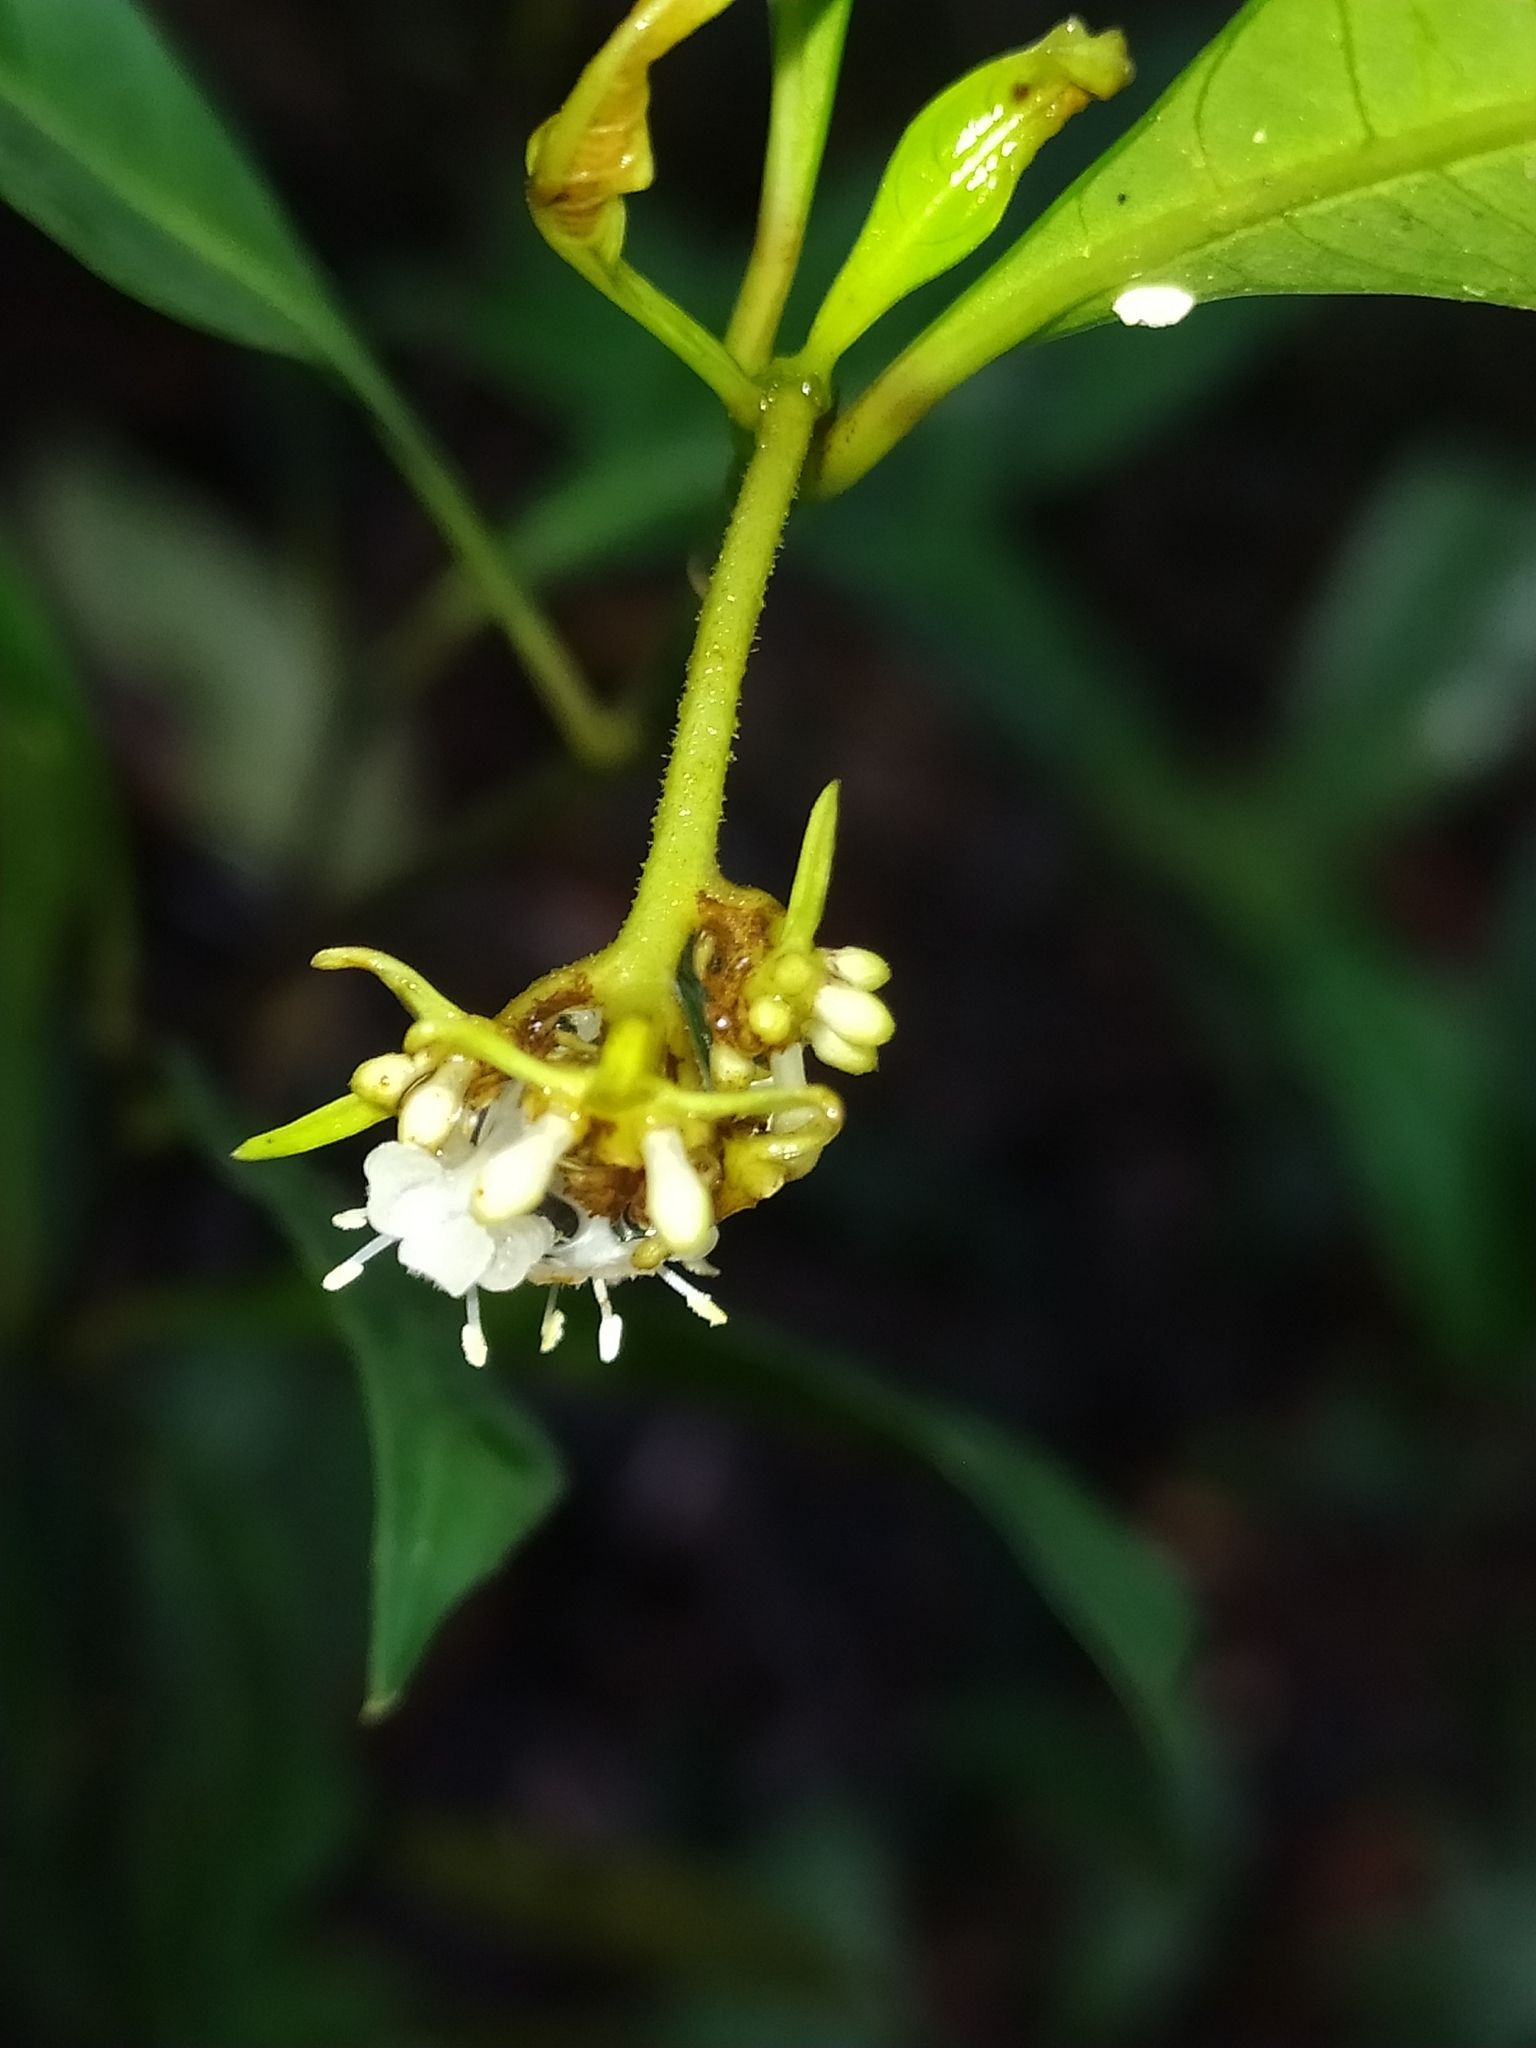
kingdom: Plantae
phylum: Tracheophyta
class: Magnoliopsida
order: Gentianales
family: Rubiaceae
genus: Palicourea
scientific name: Palicourea tenerior
